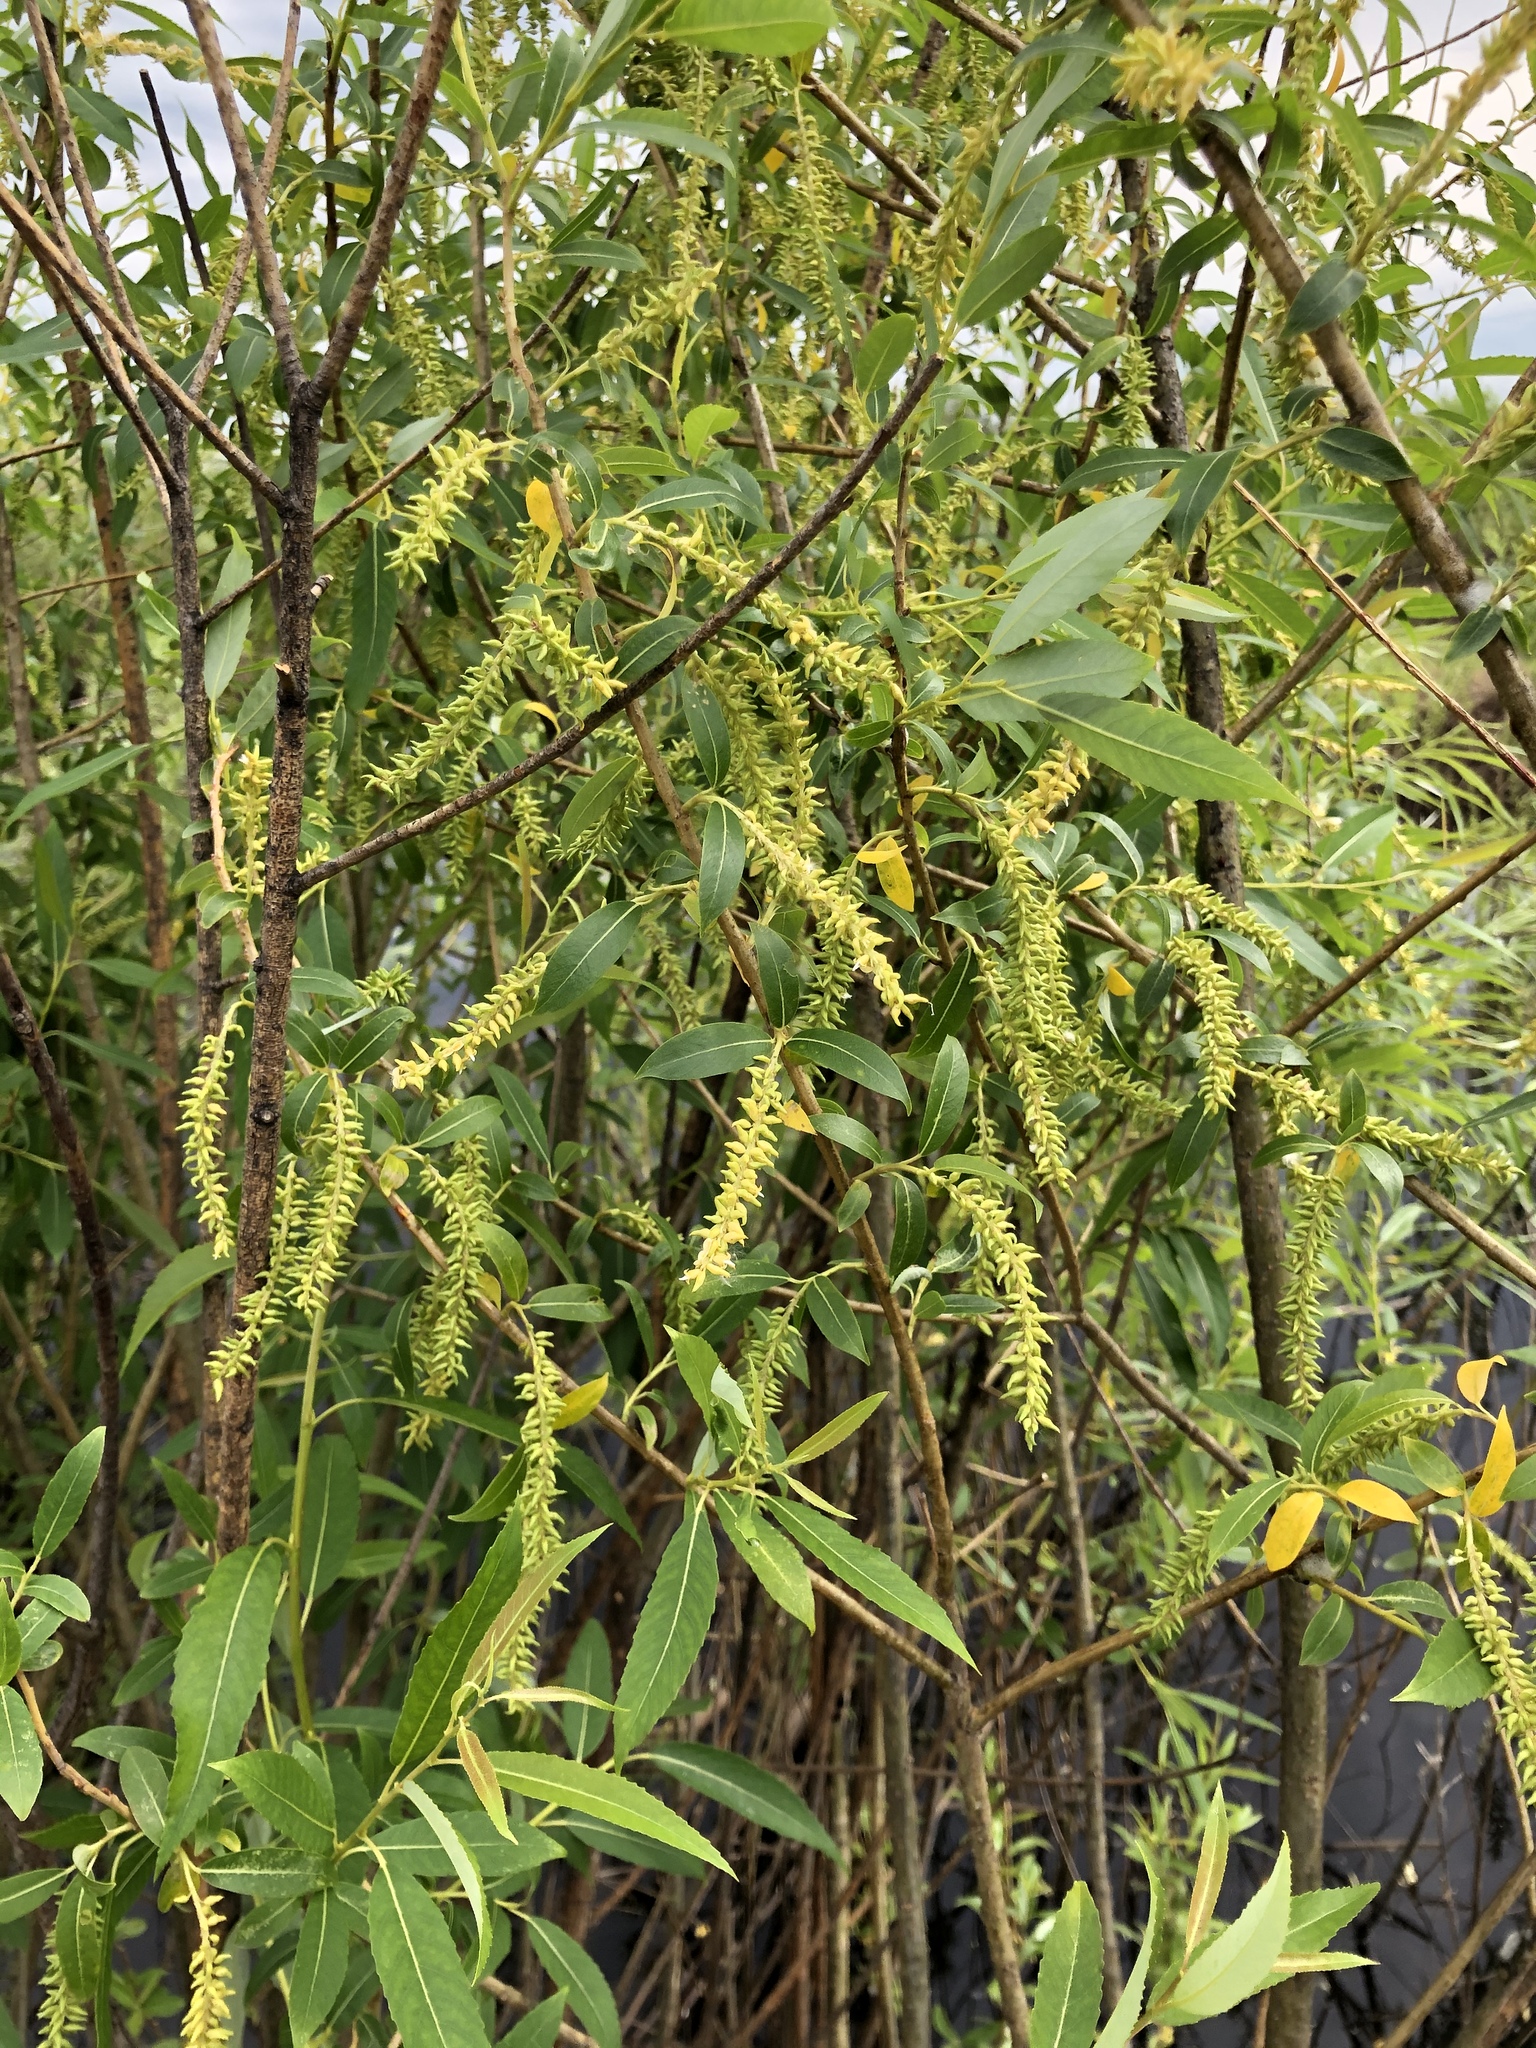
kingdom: Plantae
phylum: Tracheophyta
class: Magnoliopsida
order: Malpighiales
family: Salicaceae
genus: Salix
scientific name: Salix triandra
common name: Almond willow
